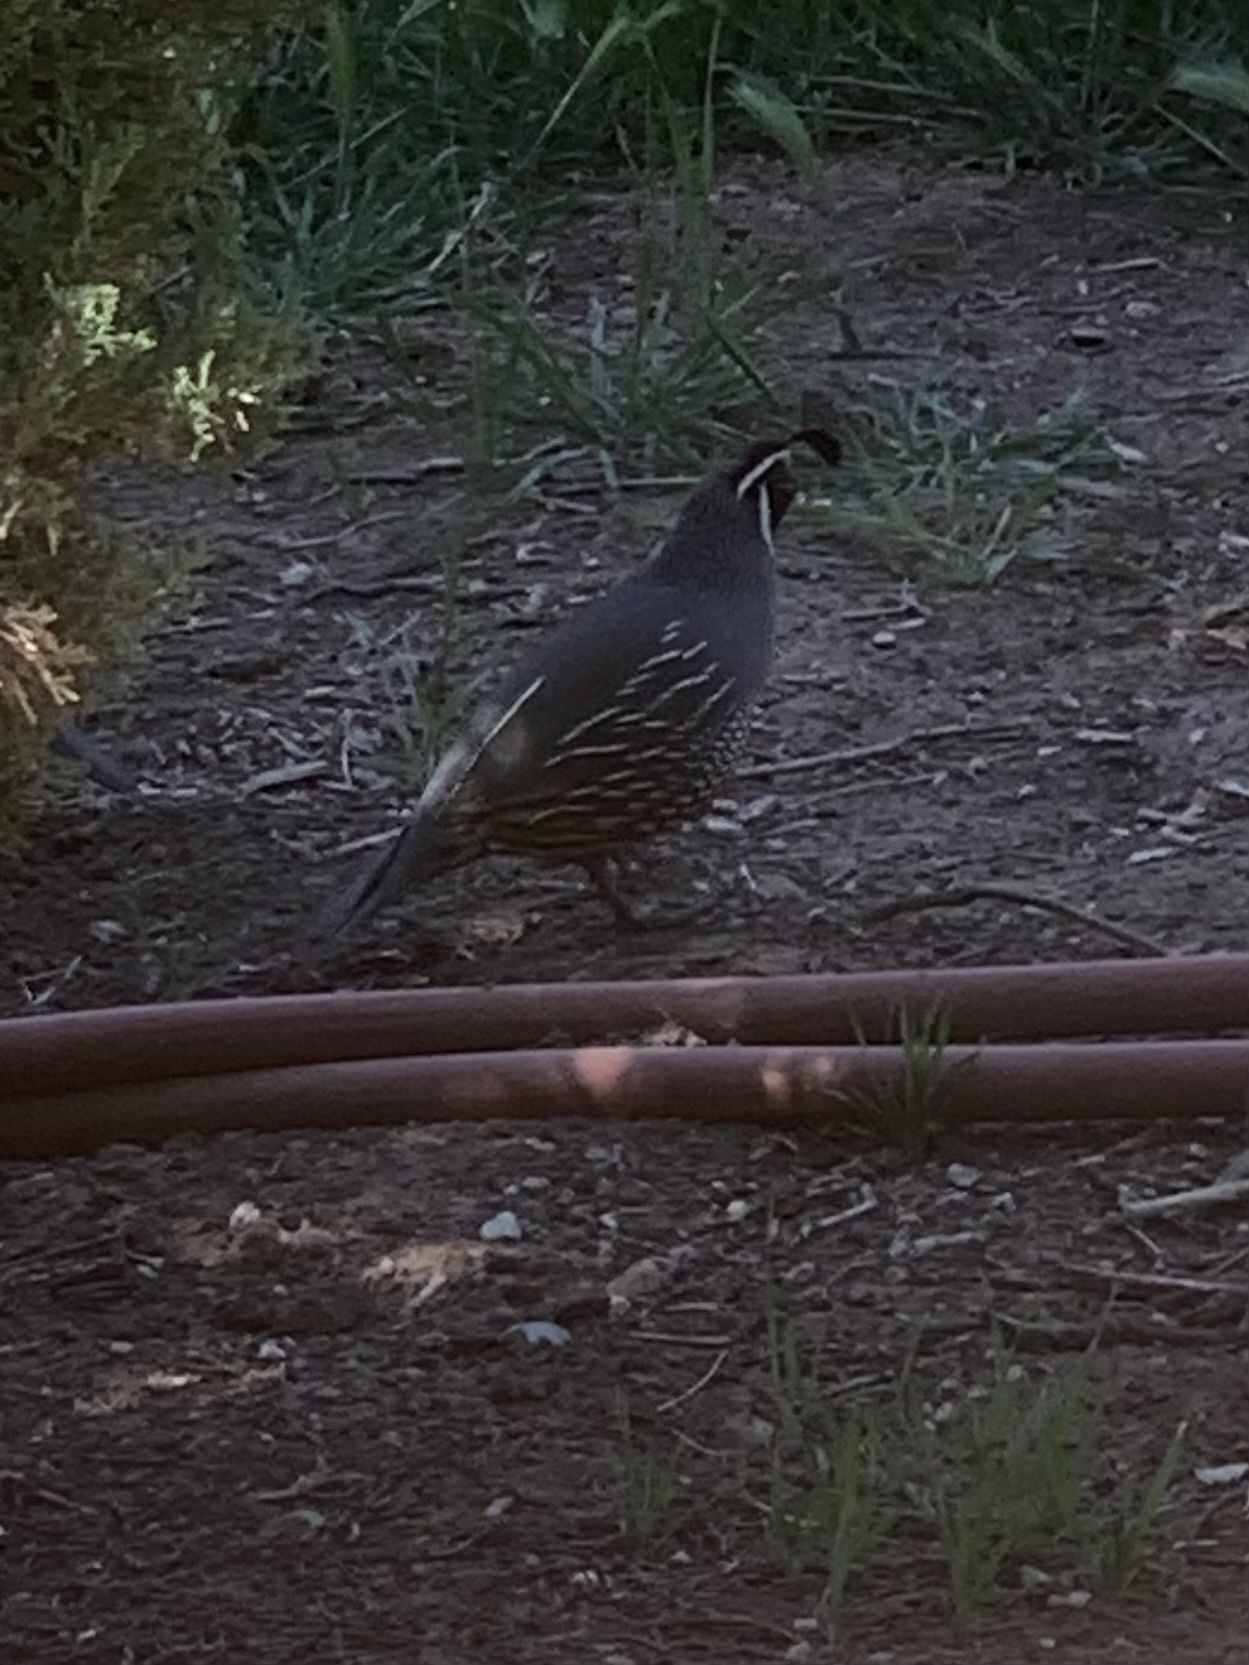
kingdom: Animalia
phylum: Chordata
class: Aves
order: Galliformes
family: Odontophoridae
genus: Callipepla
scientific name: Callipepla californica
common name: California quail
